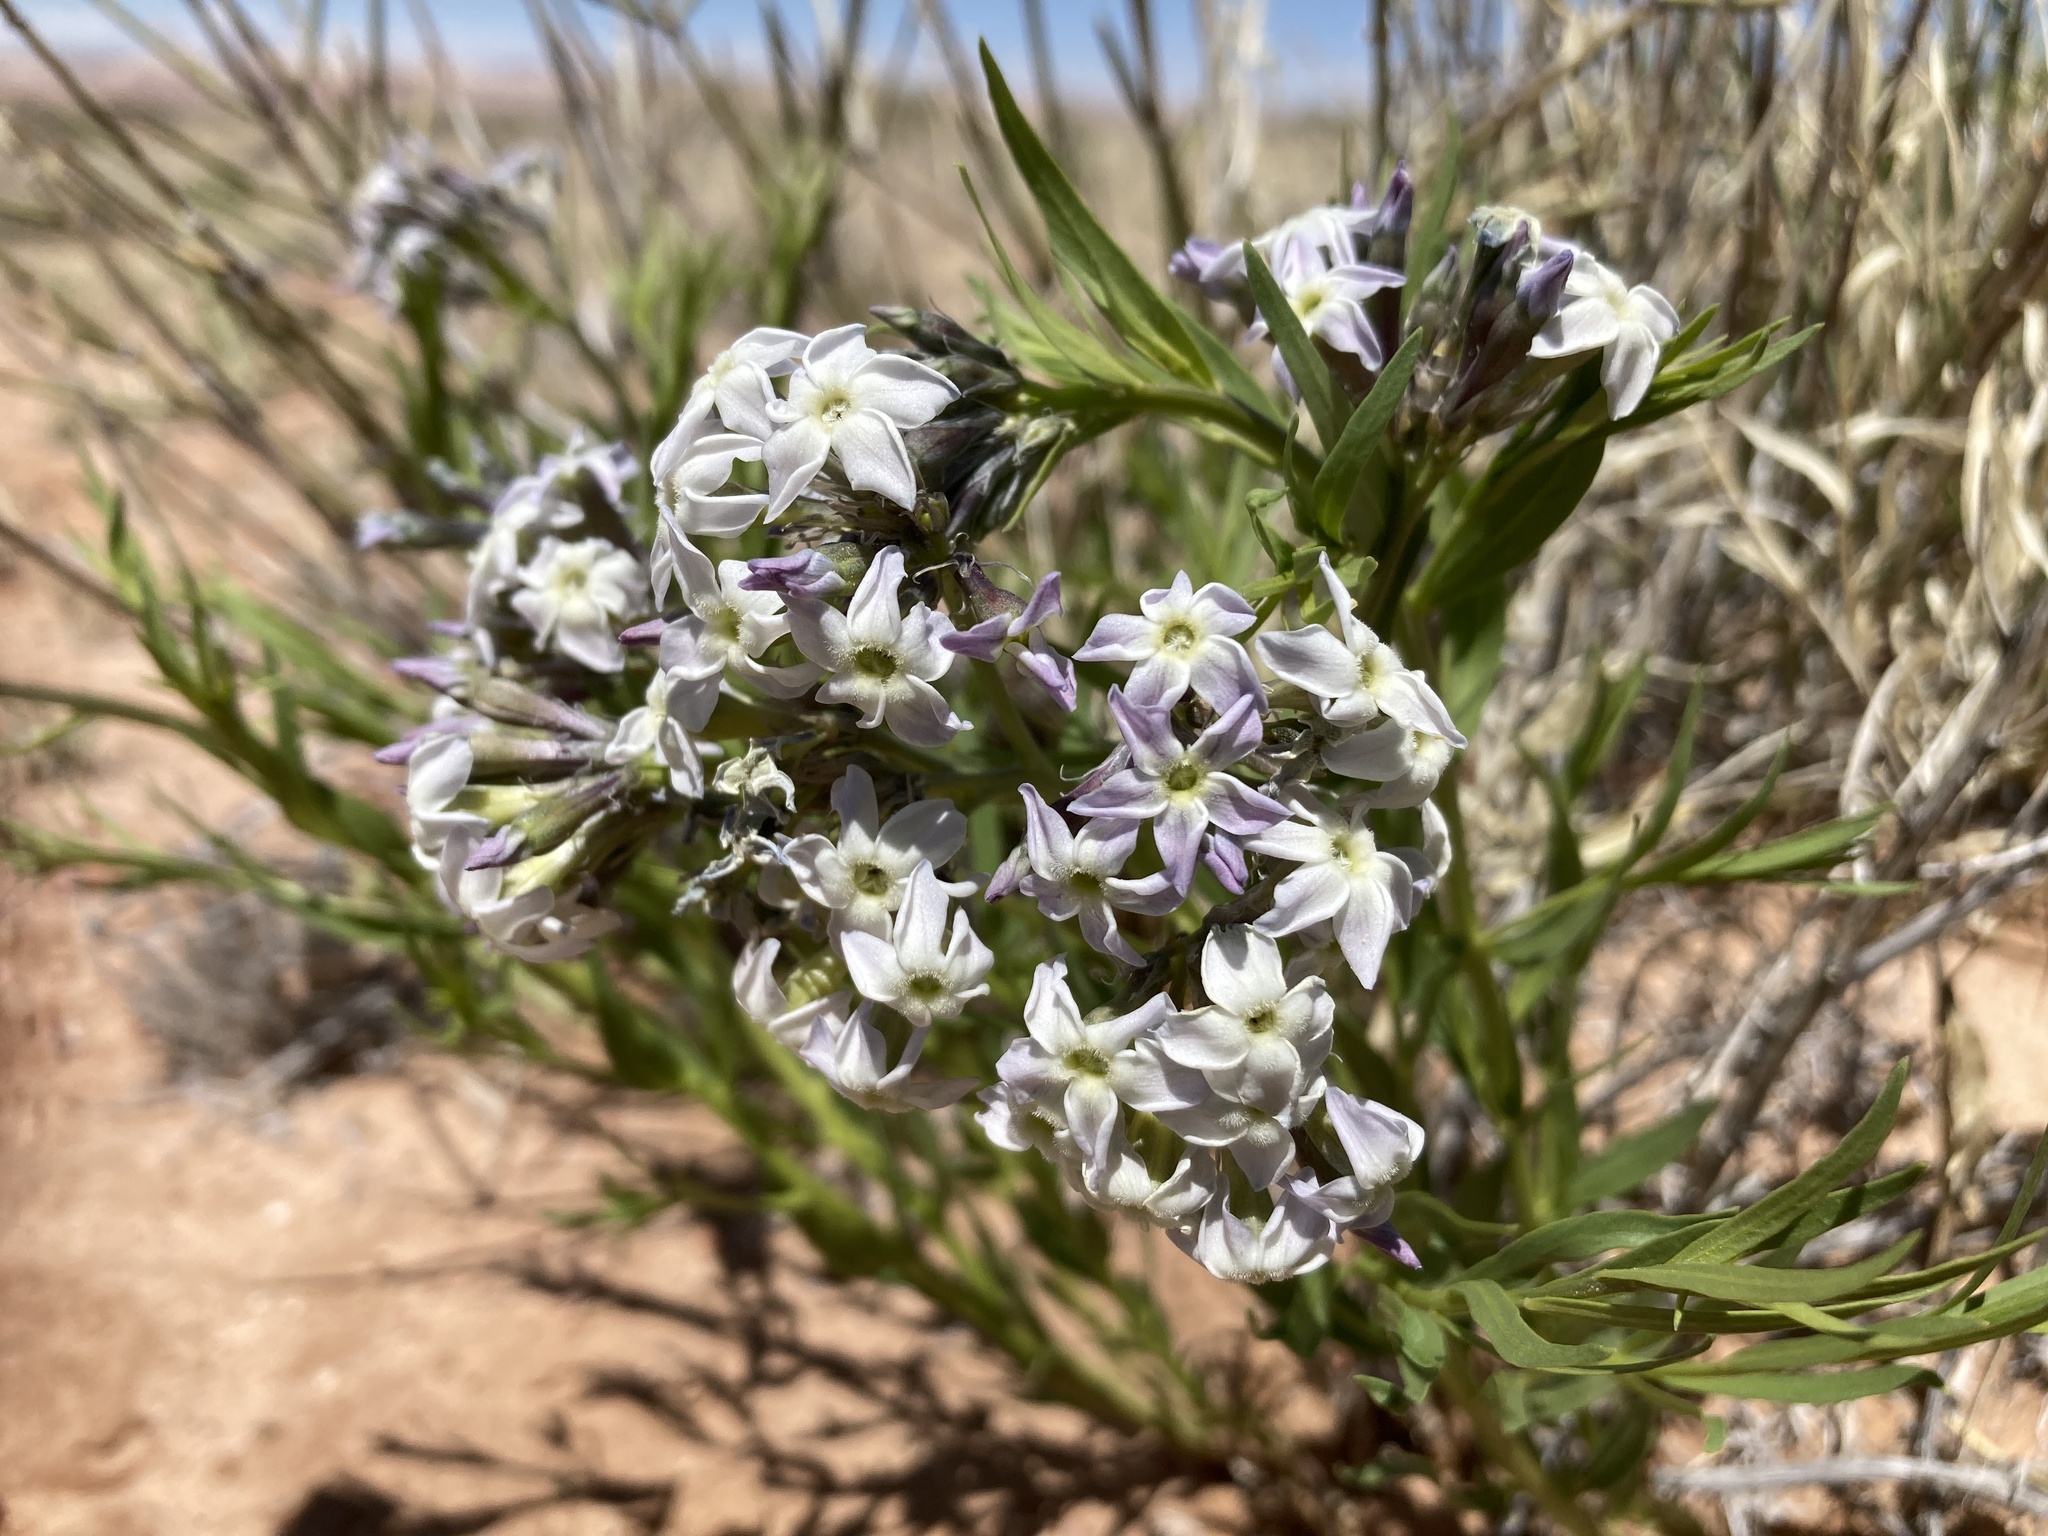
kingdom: Plantae
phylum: Tracheophyta
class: Magnoliopsida
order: Gentianales
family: Apocynaceae
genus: Amsonia
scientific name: Amsonia tomentosa
